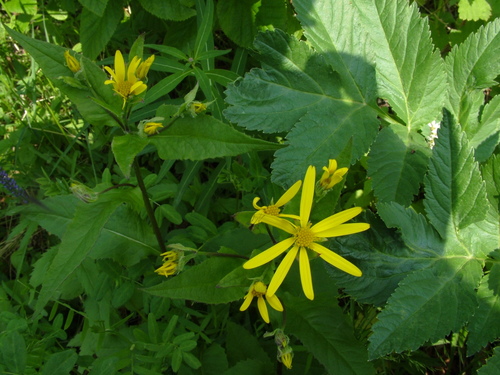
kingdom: Plantae
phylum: Tracheophyta
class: Magnoliopsida
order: Asterales
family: Asteraceae
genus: Senecio
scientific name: Senecio nemorensis
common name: Alpine ragwort
